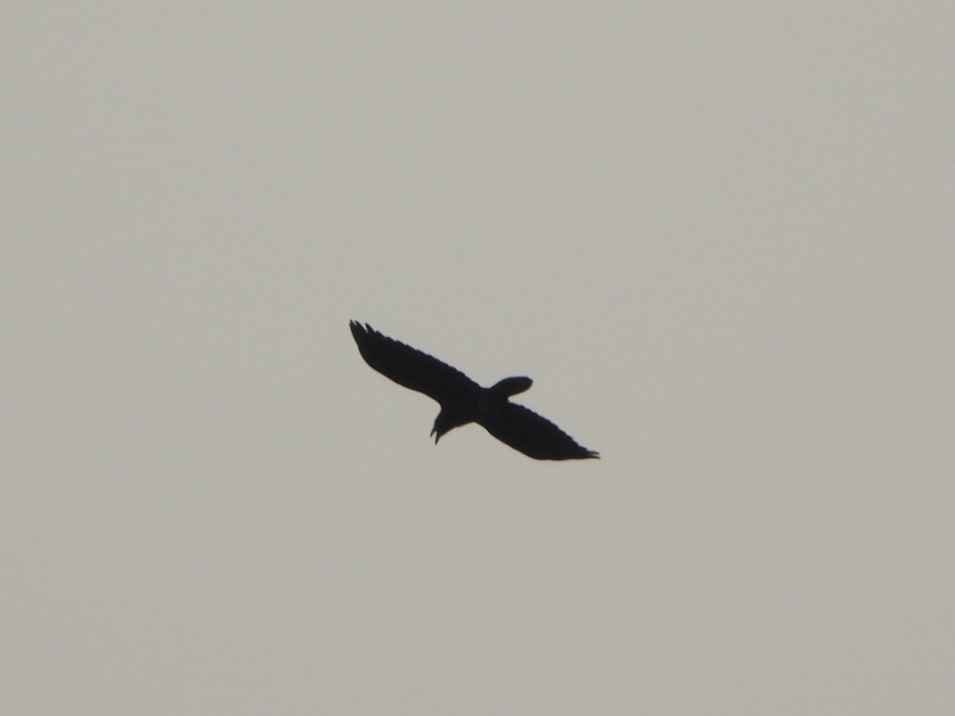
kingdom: Animalia
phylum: Chordata
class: Aves
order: Passeriformes
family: Corvidae
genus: Corvus
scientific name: Corvus corax
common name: Common raven
